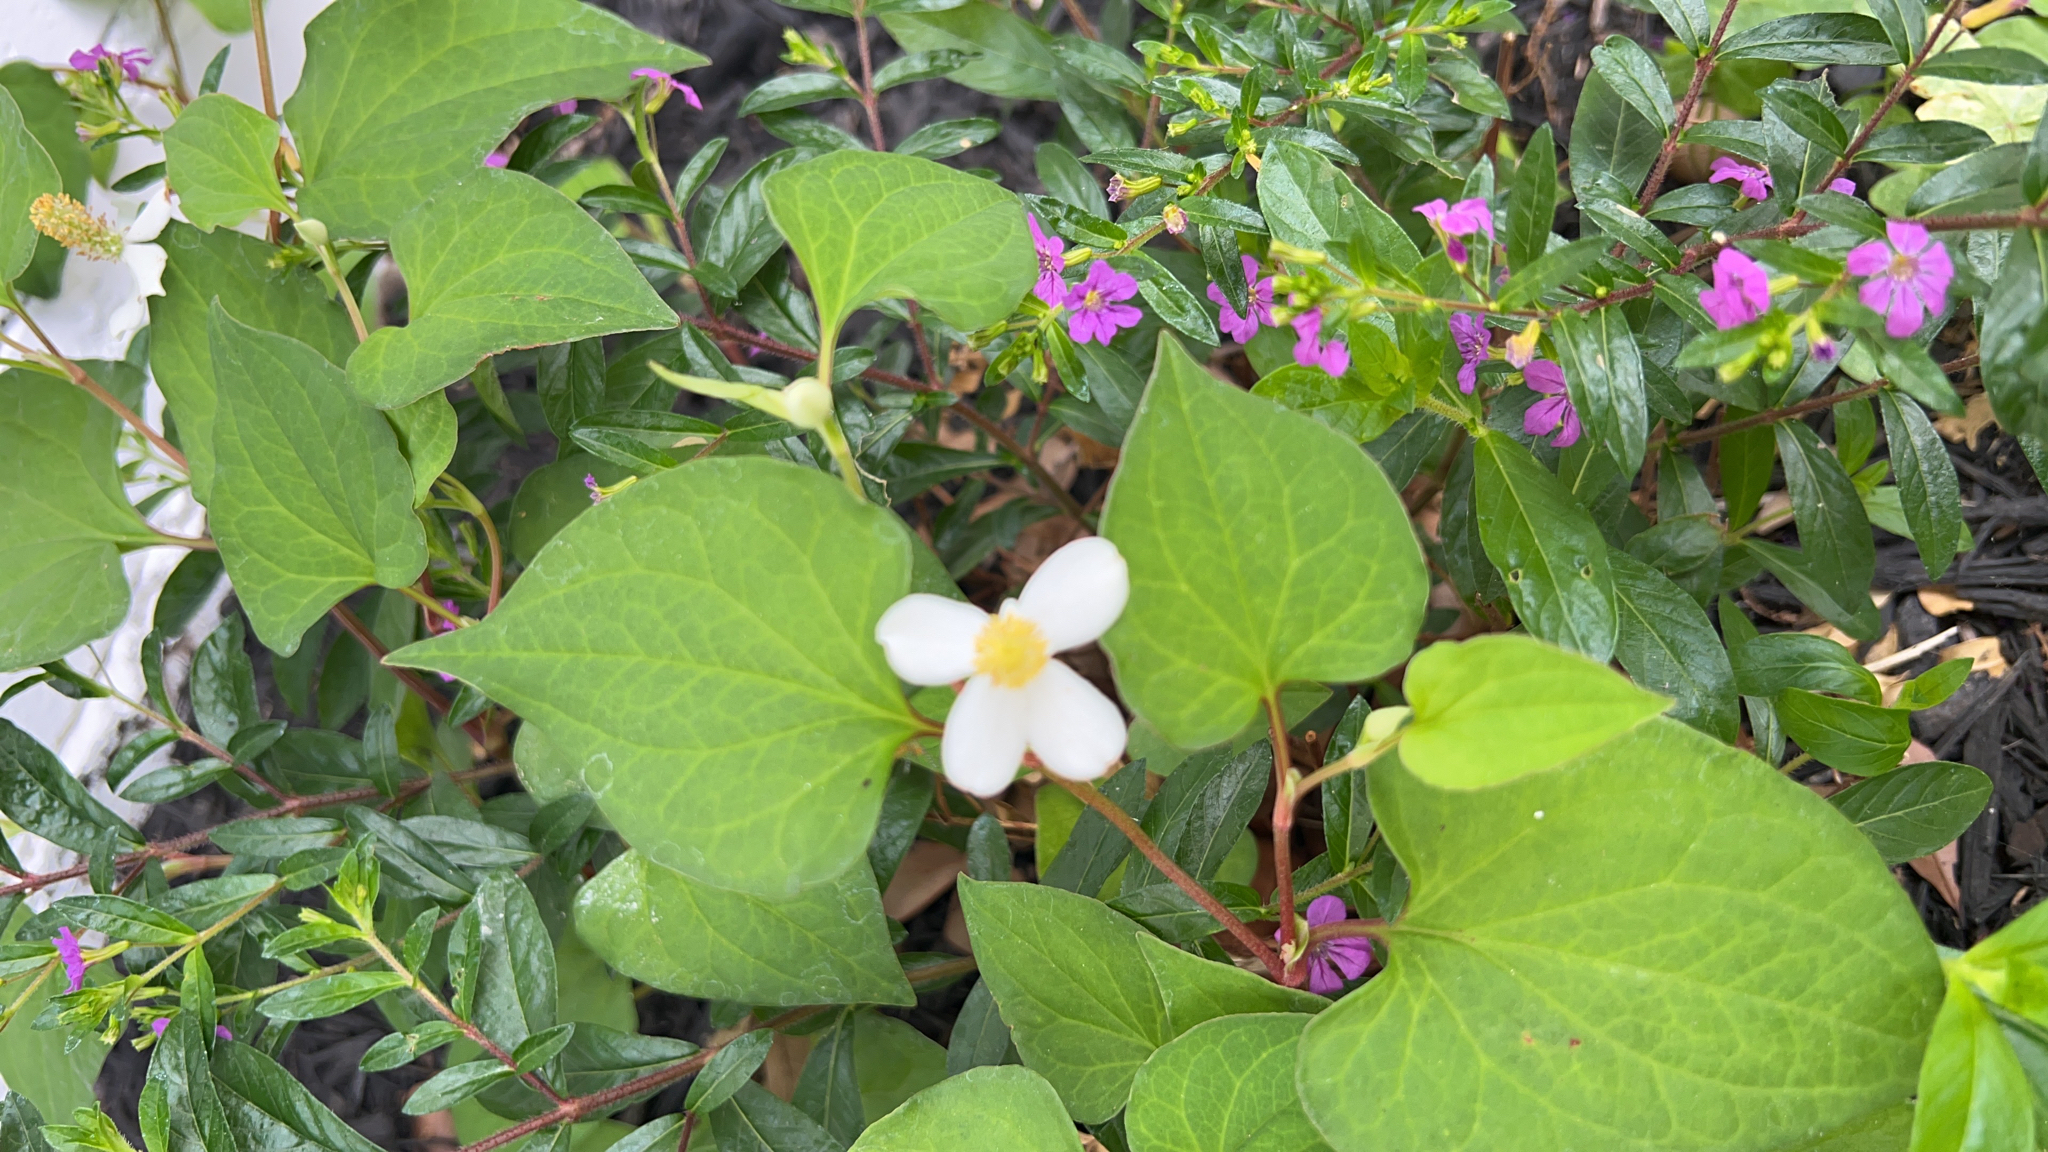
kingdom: Plantae
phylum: Tracheophyta
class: Magnoliopsida
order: Piperales
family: Saururaceae
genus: Houttuynia
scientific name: Houttuynia cordata
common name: Chameleon
